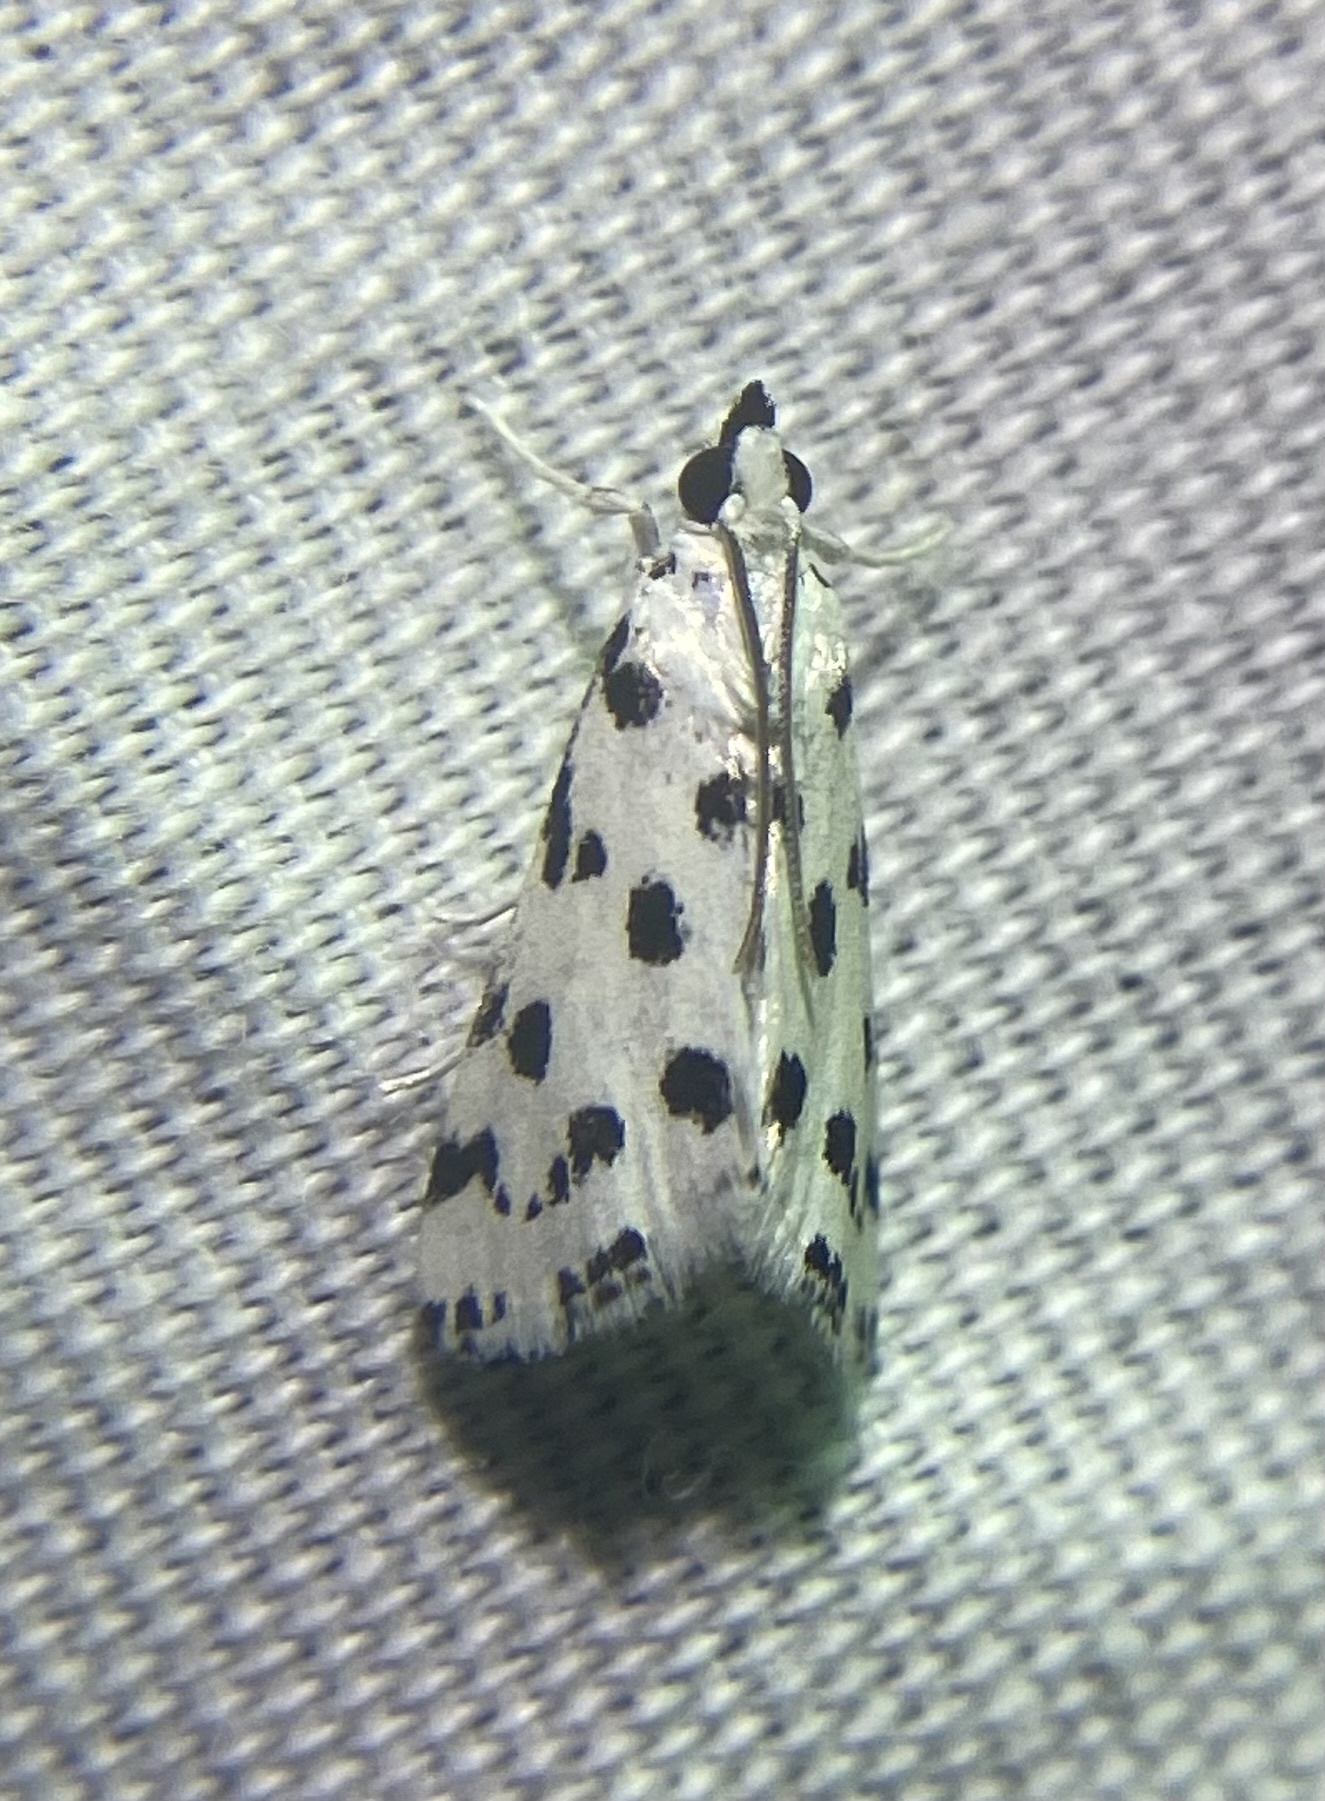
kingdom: Animalia
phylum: Arthropoda
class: Insecta
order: Lepidoptera
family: Crambidae
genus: Eustixia
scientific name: Eustixia pupula
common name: American cabbage pearl
